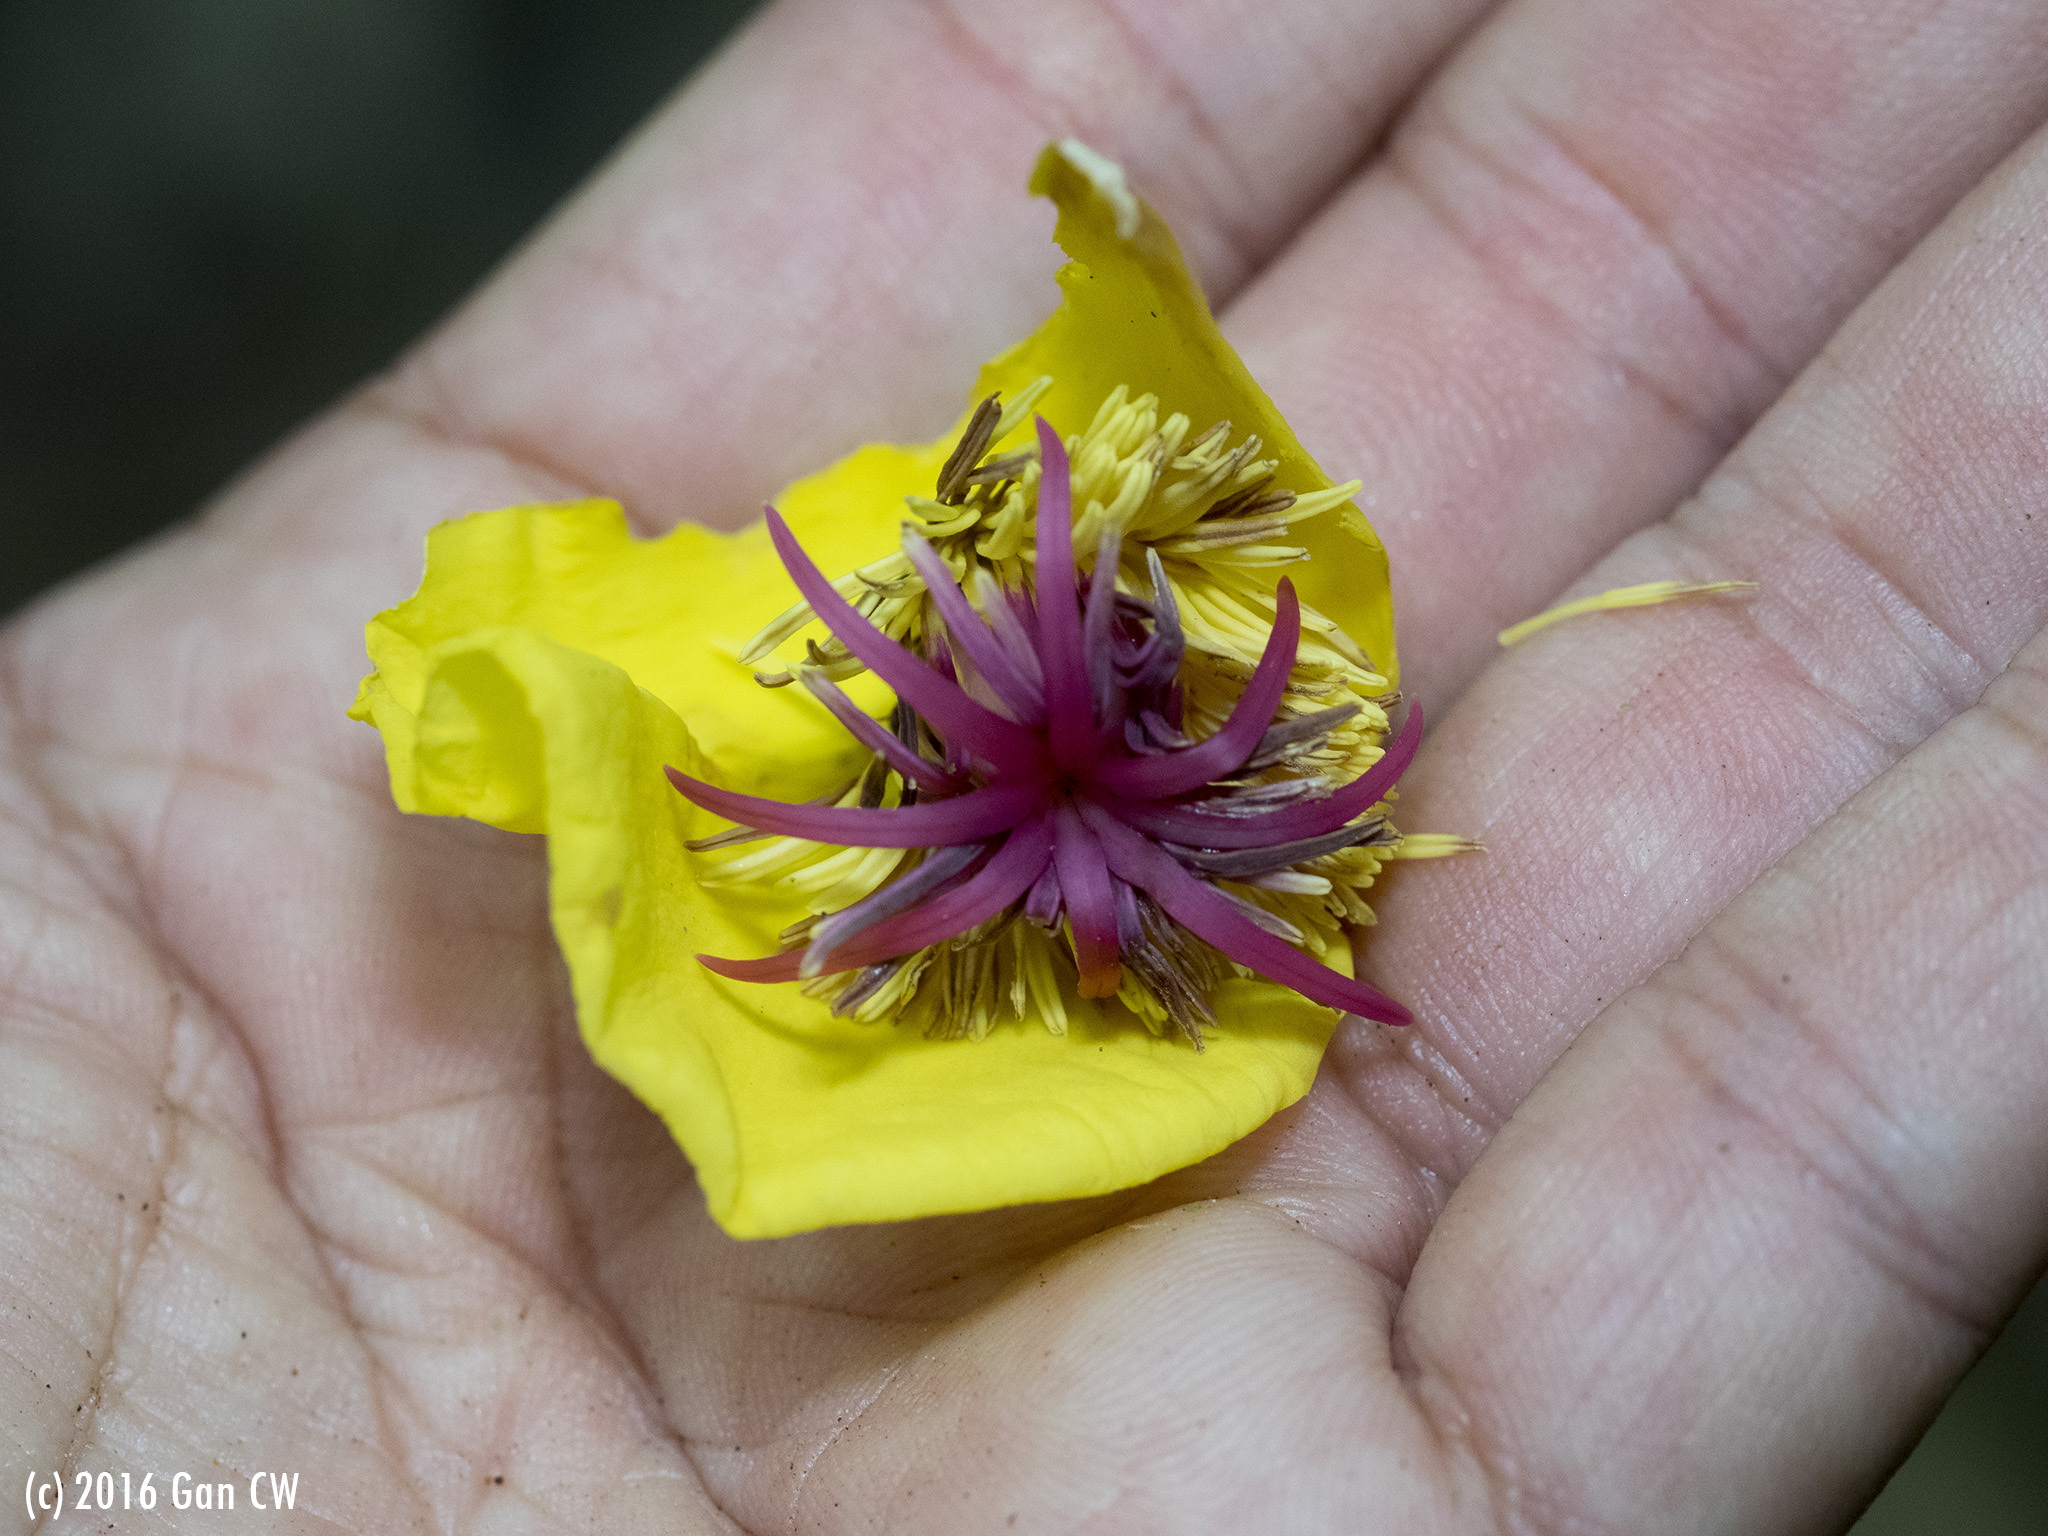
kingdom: Plantae
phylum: Tracheophyta
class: Magnoliopsida
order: Dilleniales
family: Dilleniaceae
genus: Dillenia
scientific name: Dillenia excelsa
